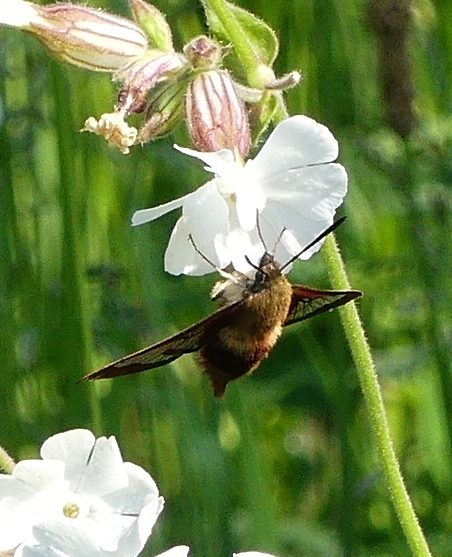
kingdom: Animalia
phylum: Arthropoda
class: Insecta
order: Lepidoptera
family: Sphingidae
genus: Hemaris
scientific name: Hemaris thysbe
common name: Common clear-wing
